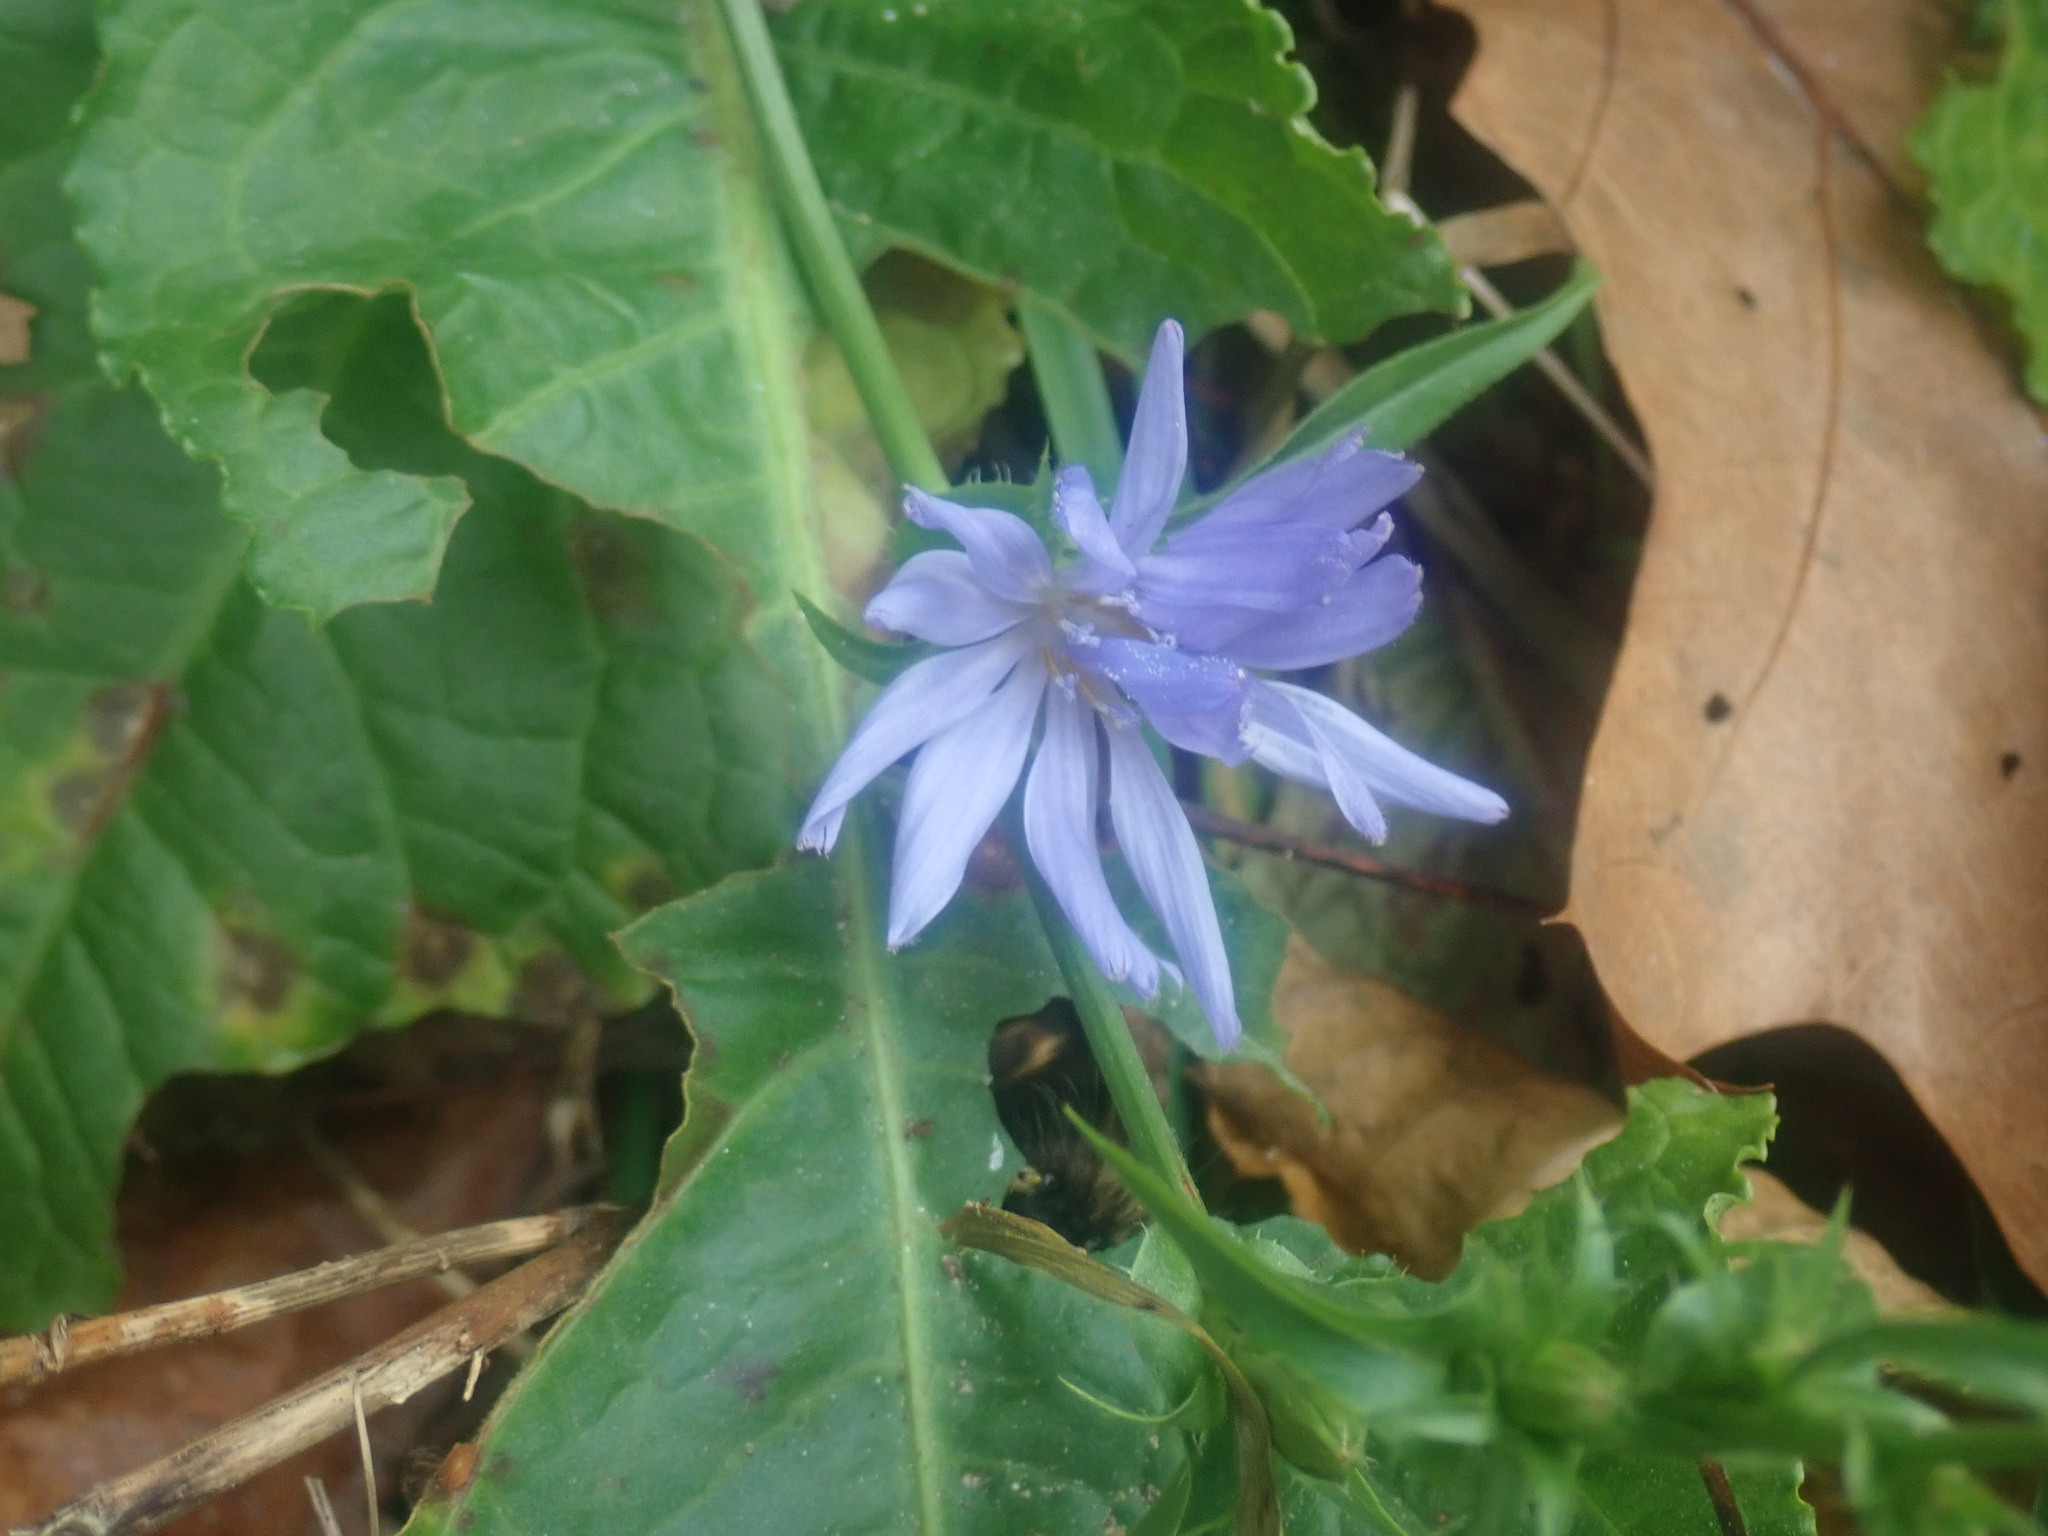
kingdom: Plantae
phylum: Tracheophyta
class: Magnoliopsida
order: Asterales
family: Asteraceae
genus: Cichorium
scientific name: Cichorium intybus
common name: Chicory
